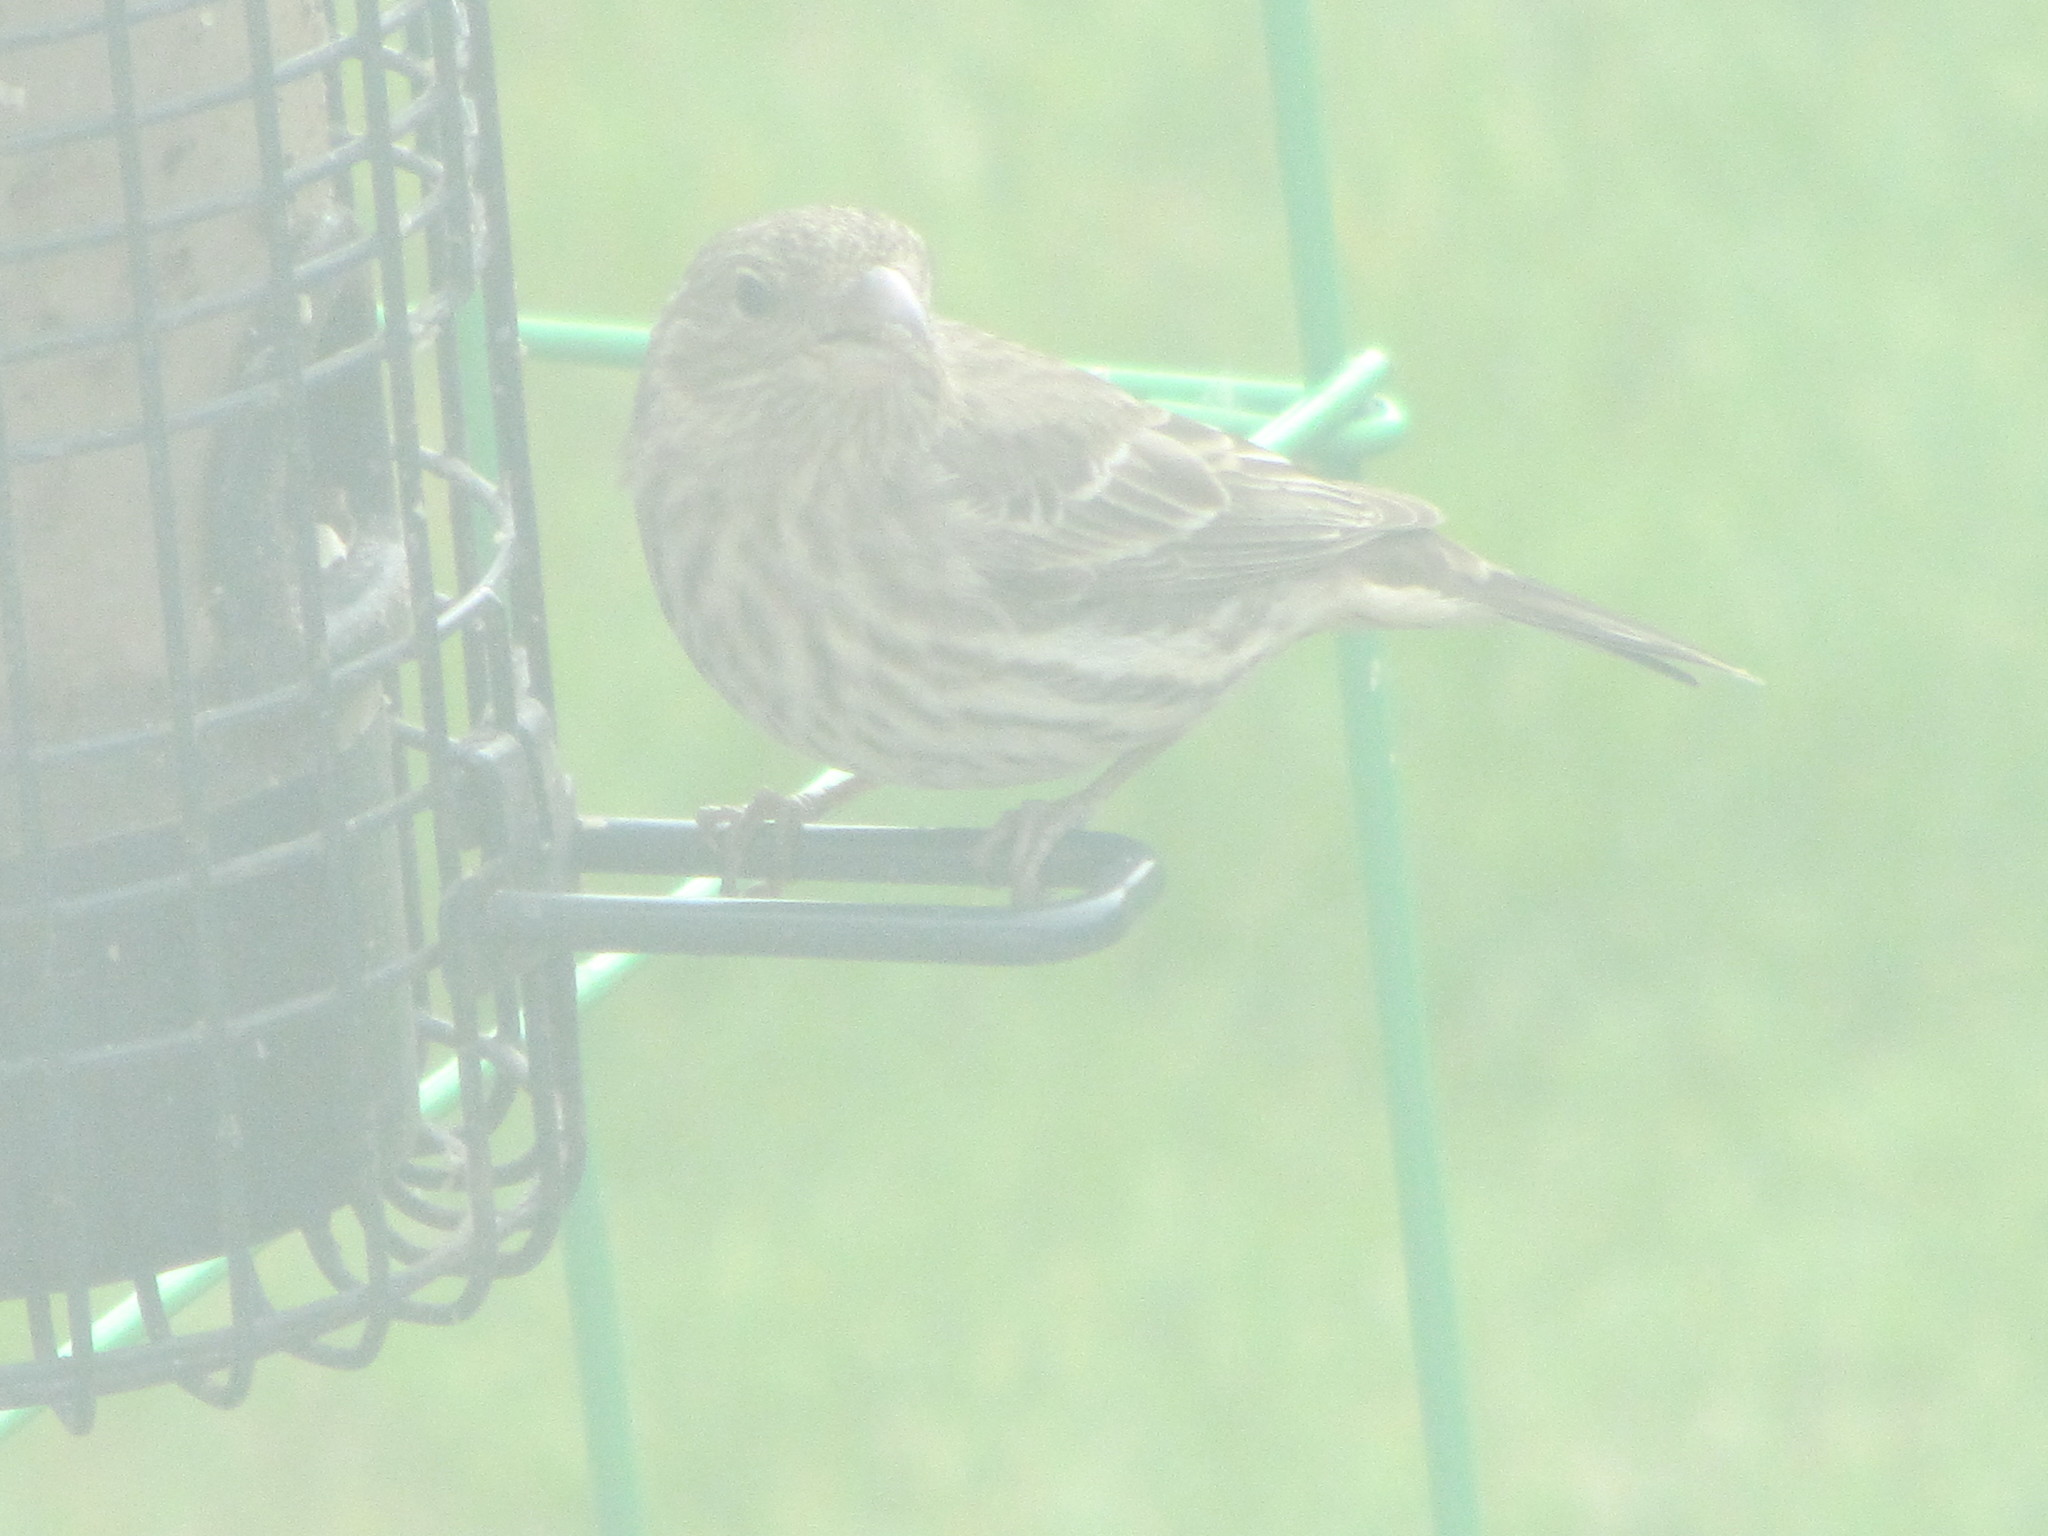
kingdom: Animalia
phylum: Chordata
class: Aves
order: Passeriformes
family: Fringillidae
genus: Haemorhous
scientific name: Haemorhous mexicanus
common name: House finch
